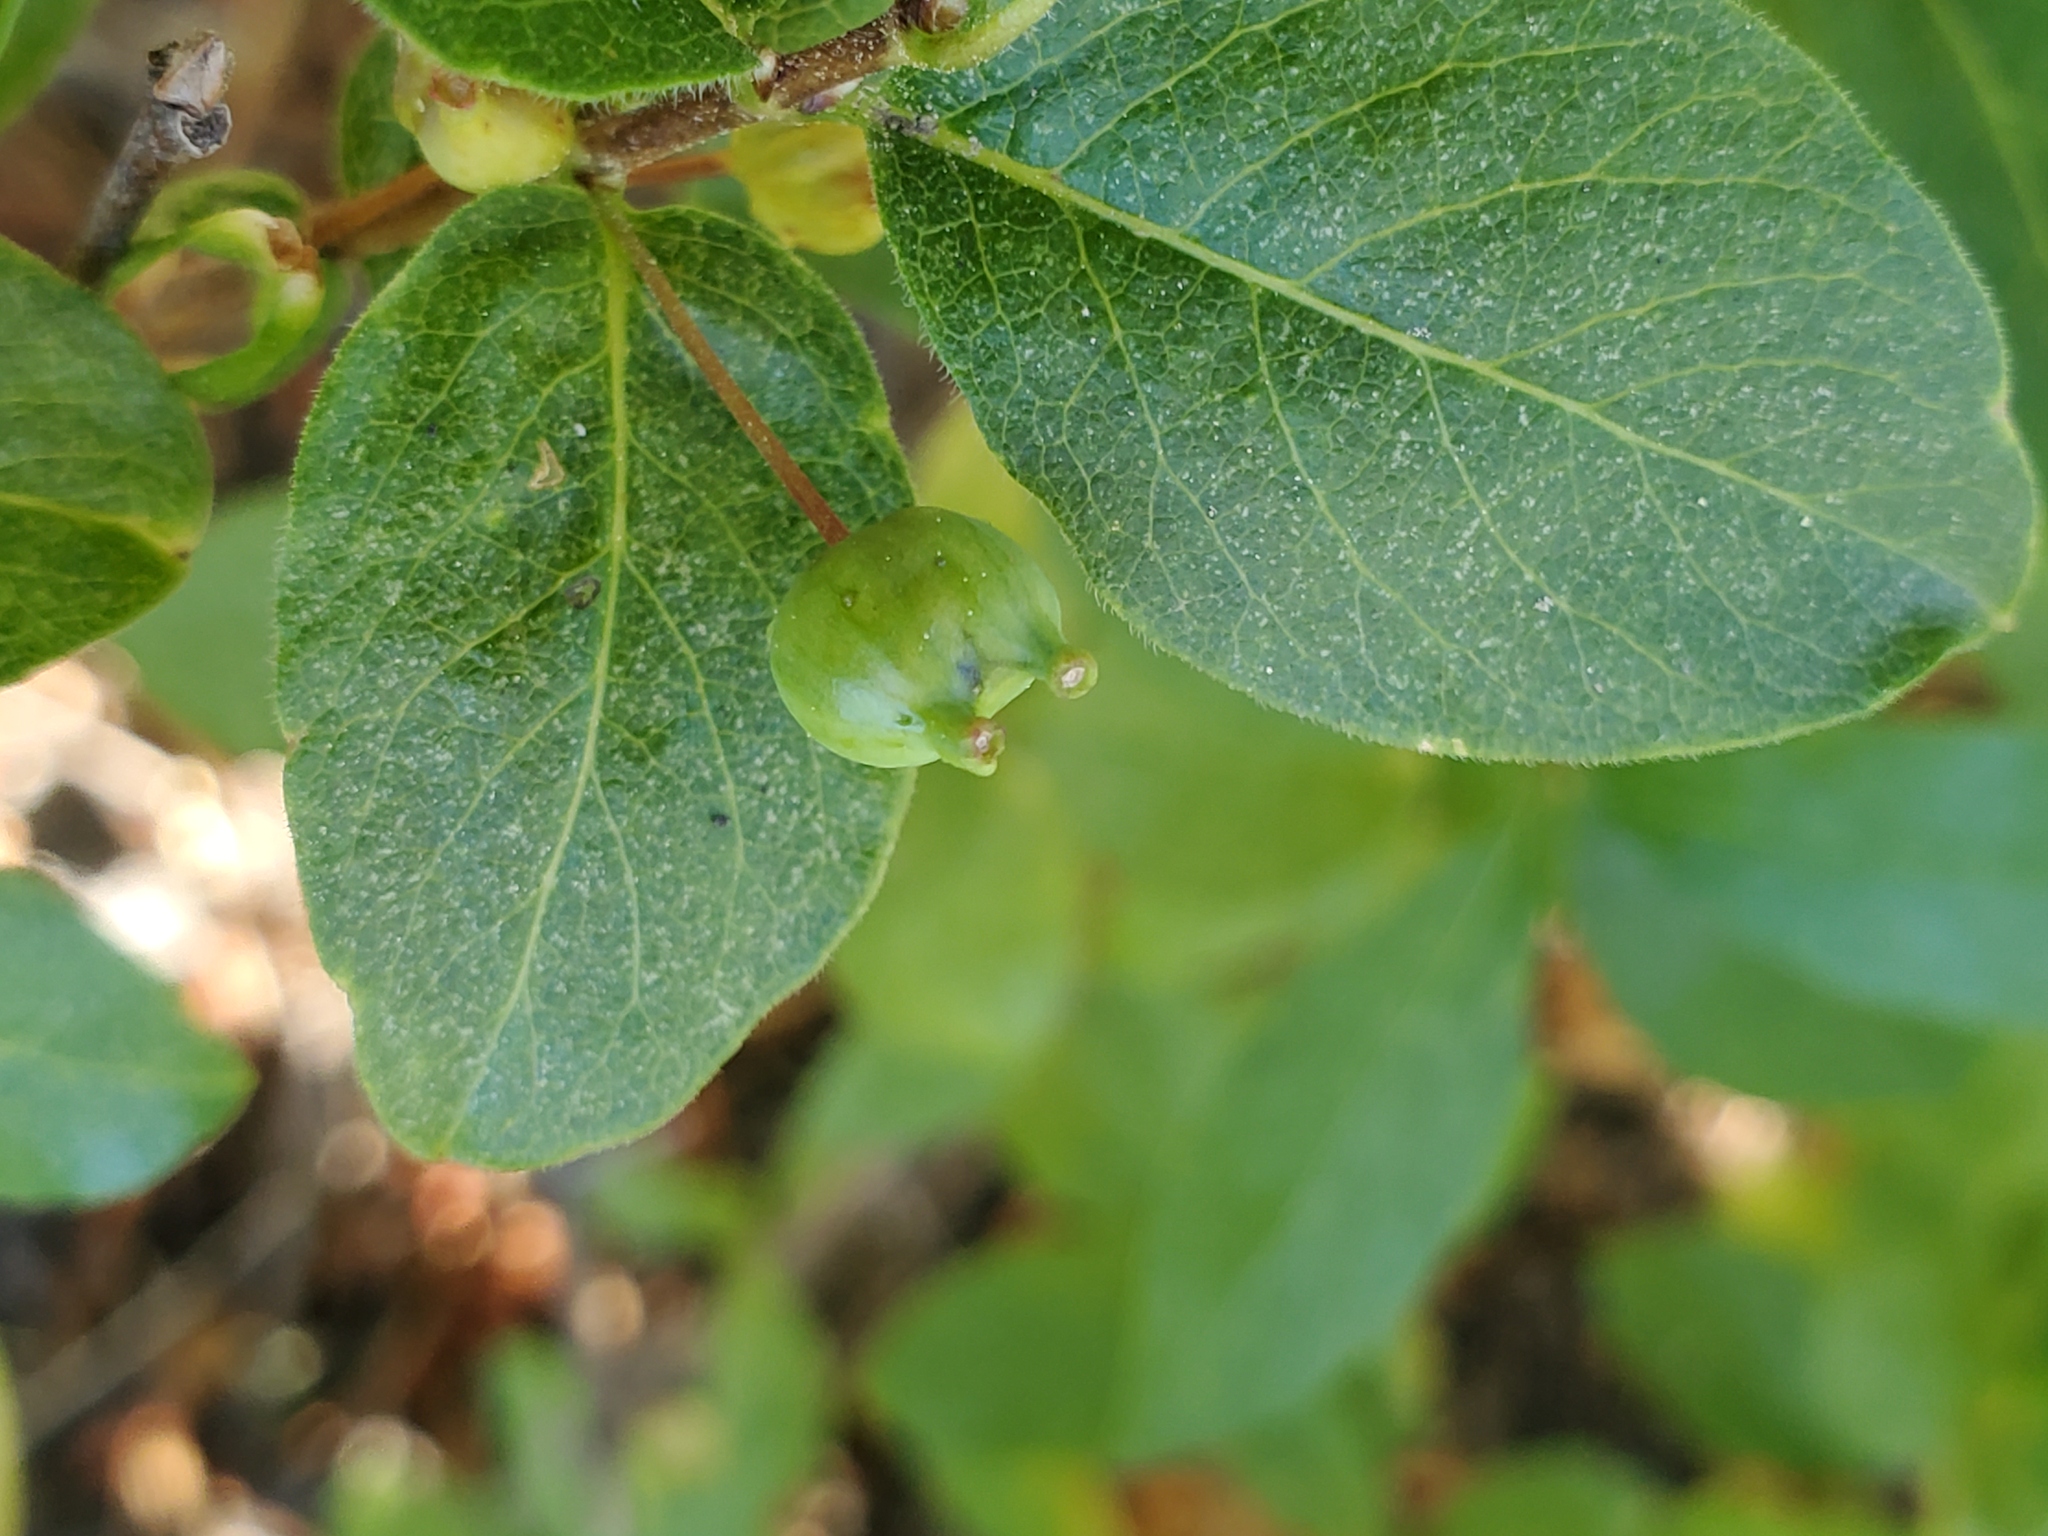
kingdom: Plantae
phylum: Tracheophyta
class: Magnoliopsida
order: Dipsacales
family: Caprifoliaceae
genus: Lonicera
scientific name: Lonicera conjugialis
